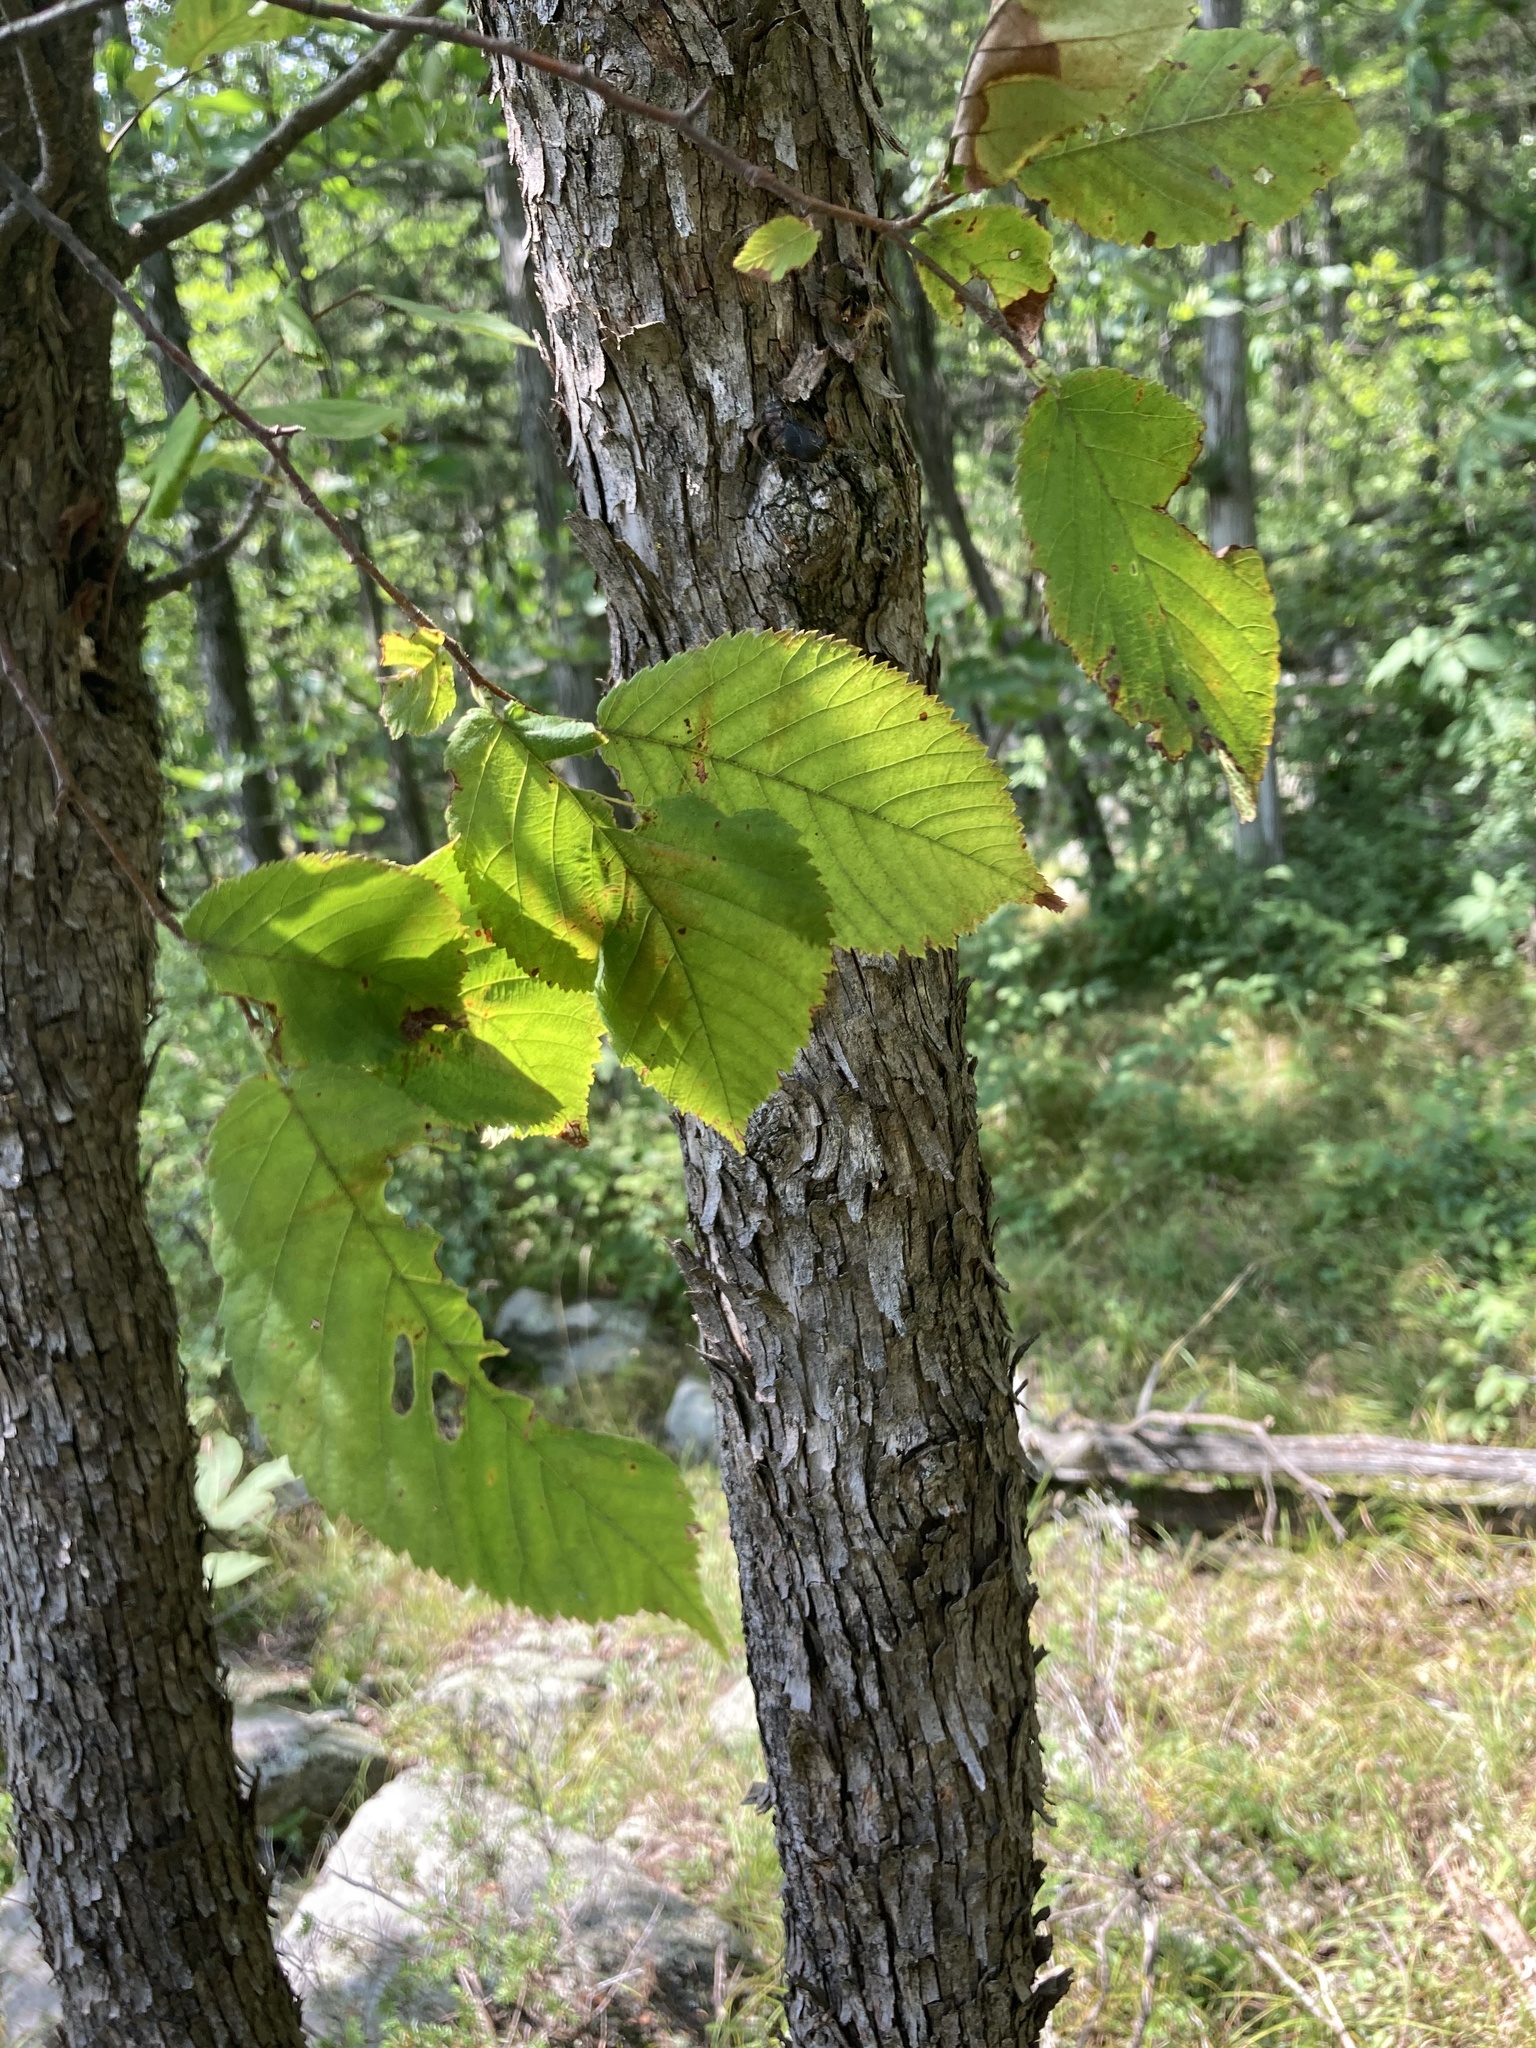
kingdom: Plantae
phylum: Tracheophyta
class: Magnoliopsida
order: Fagales
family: Betulaceae
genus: Ostrya
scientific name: Ostrya virginiana
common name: Ironwood
